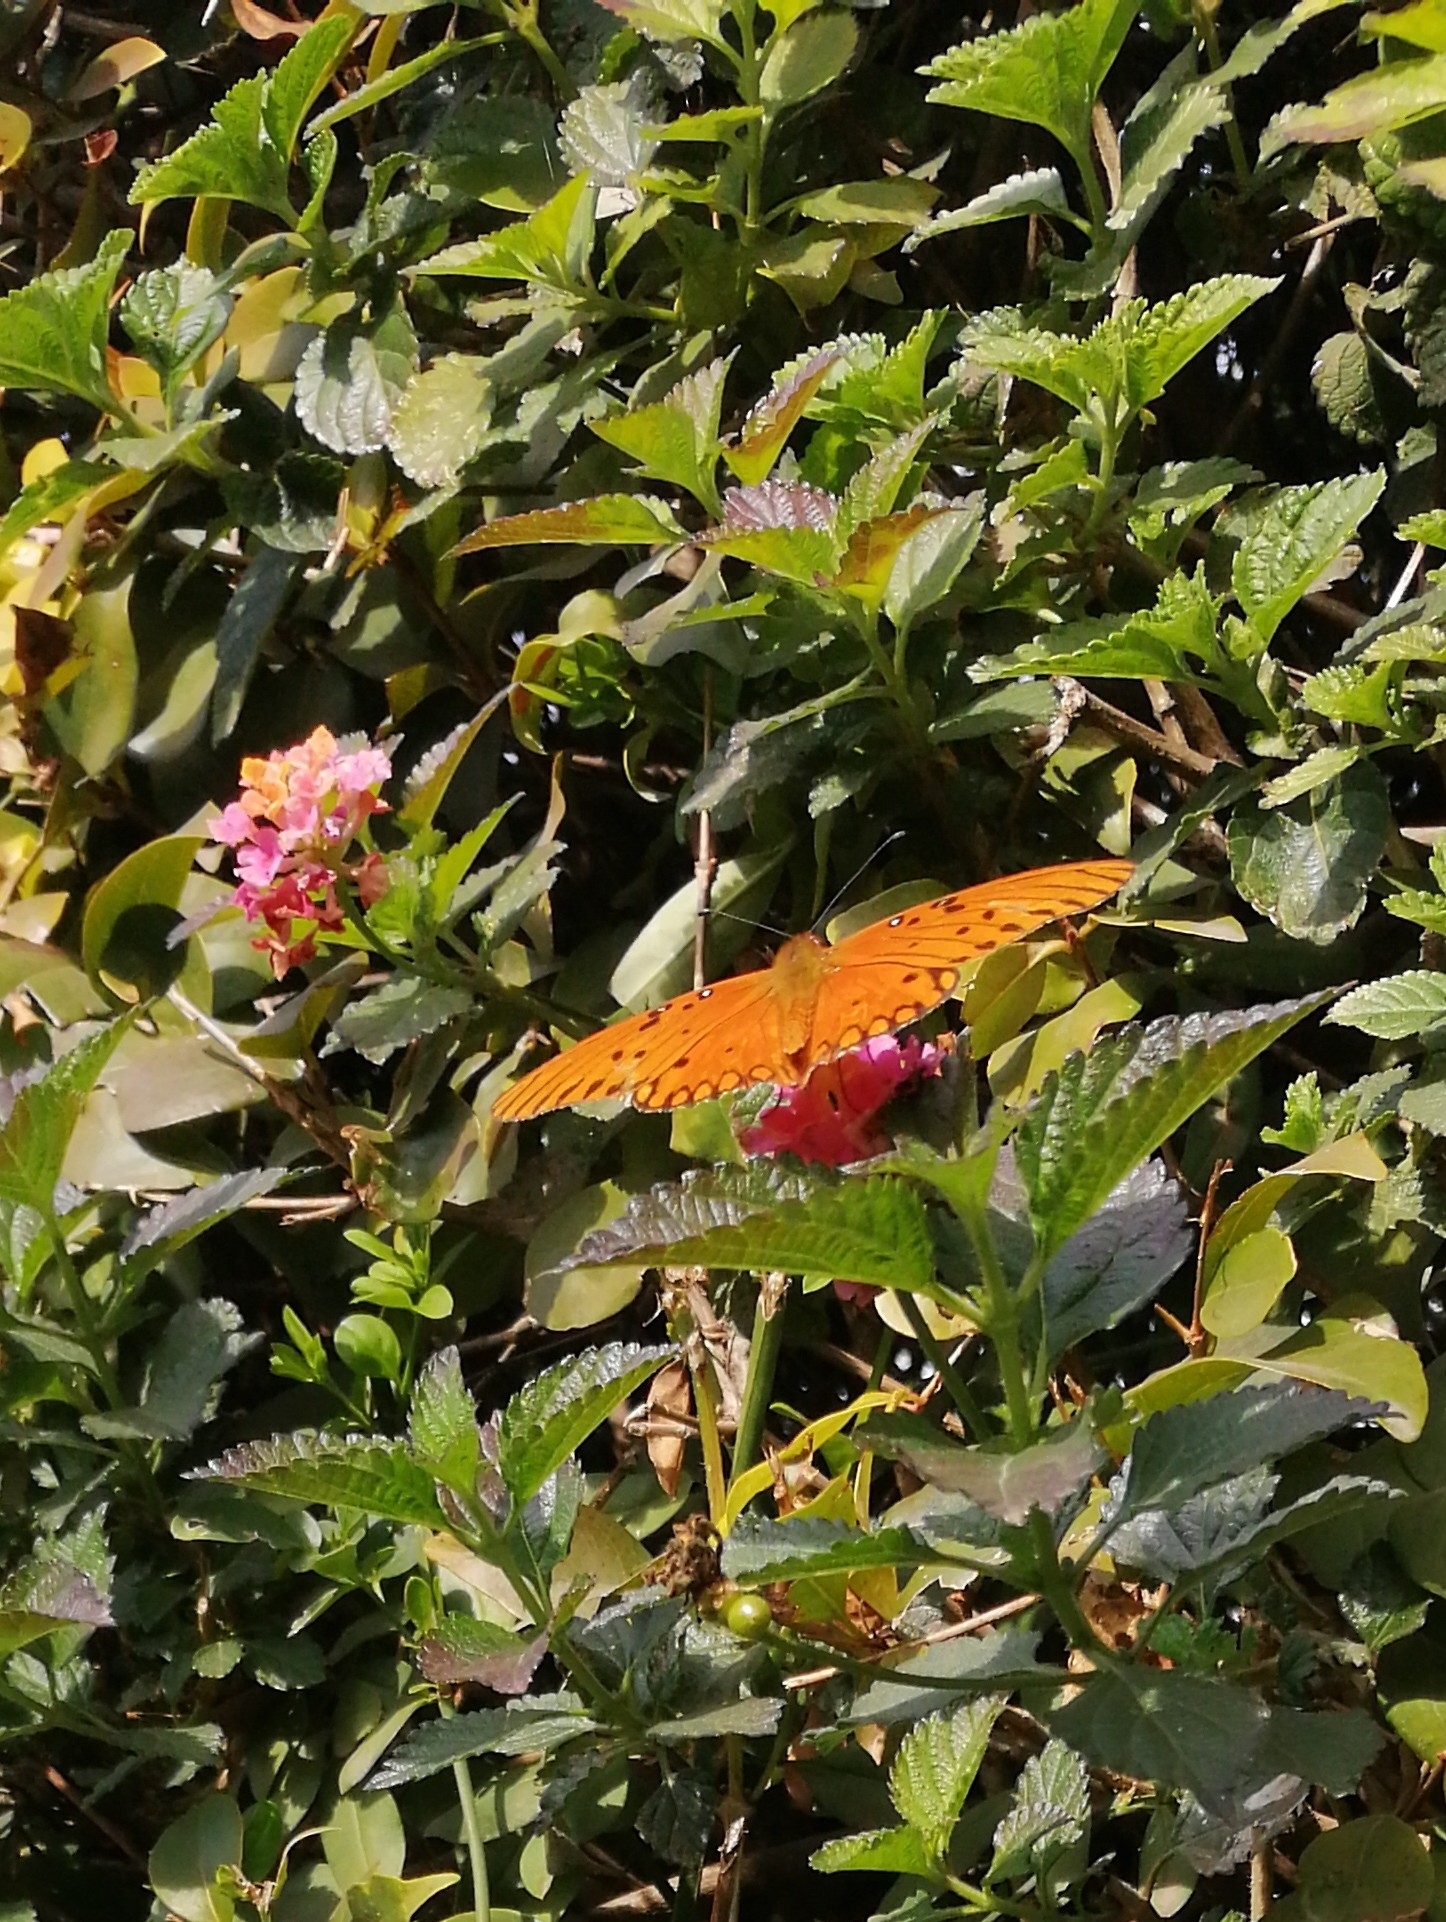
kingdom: Animalia
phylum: Arthropoda
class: Insecta
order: Lepidoptera
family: Nymphalidae
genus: Dione
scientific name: Dione vanillae
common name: Gulf fritillary
